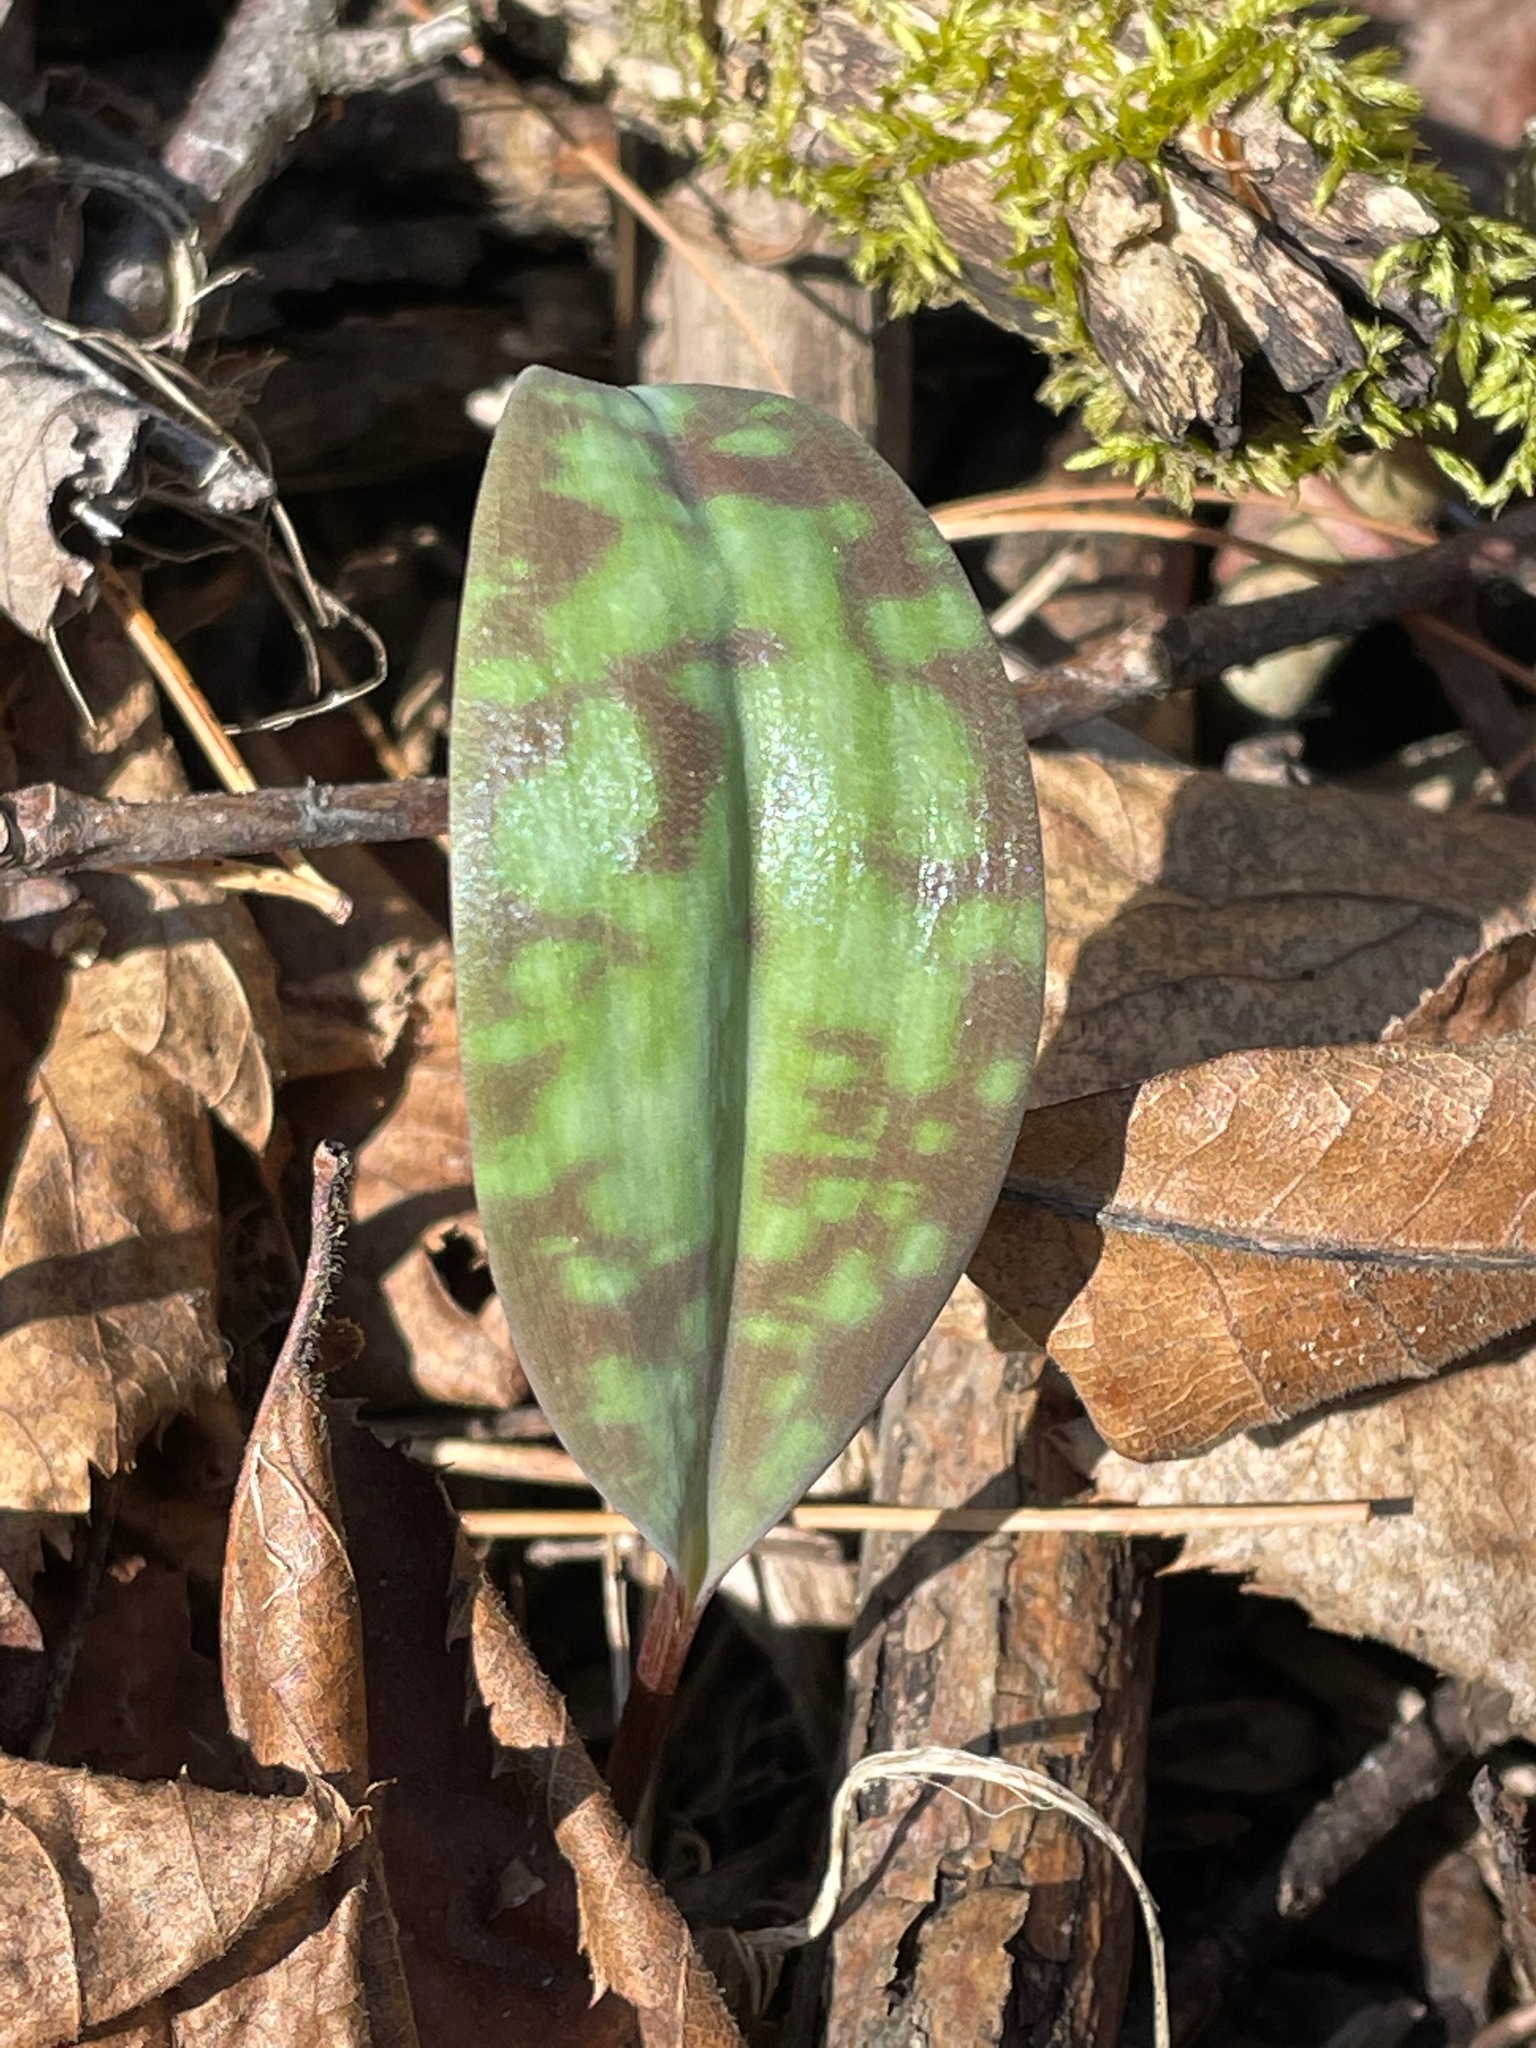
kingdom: Plantae
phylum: Tracheophyta
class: Liliopsida
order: Liliales
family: Liliaceae
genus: Erythronium
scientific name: Erythronium americanum
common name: Yellow adder's-tongue
